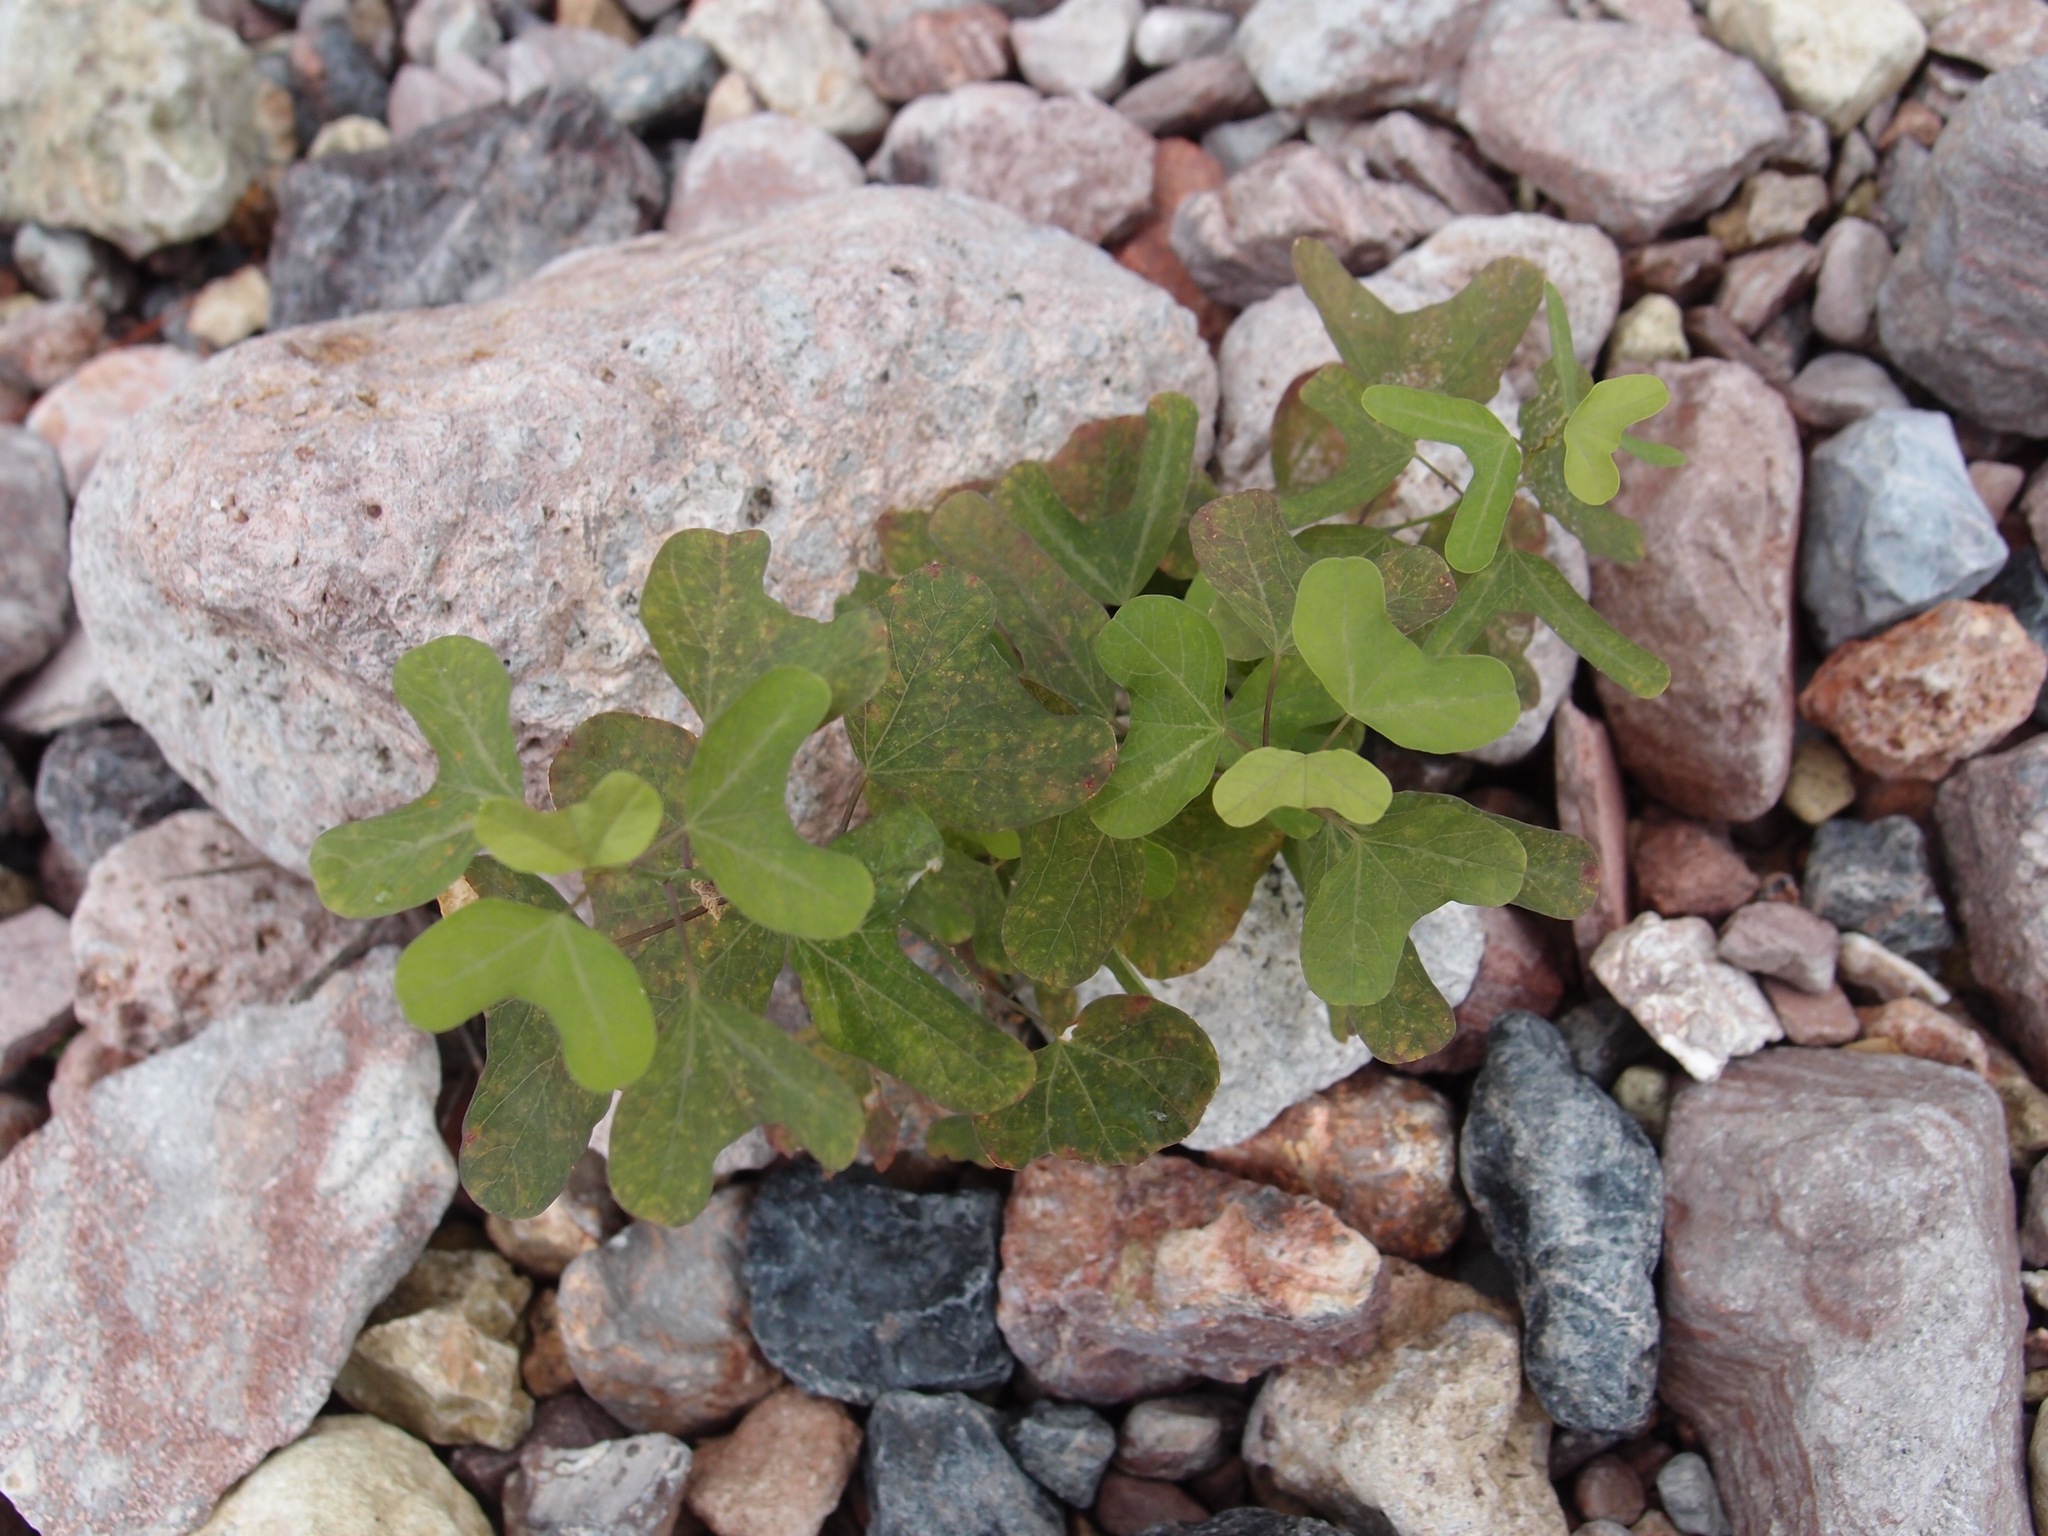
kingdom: Plantae
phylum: Tracheophyta
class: Magnoliopsida
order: Malpighiales
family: Passifloraceae
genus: Passiflora
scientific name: Passiflora mexicana
